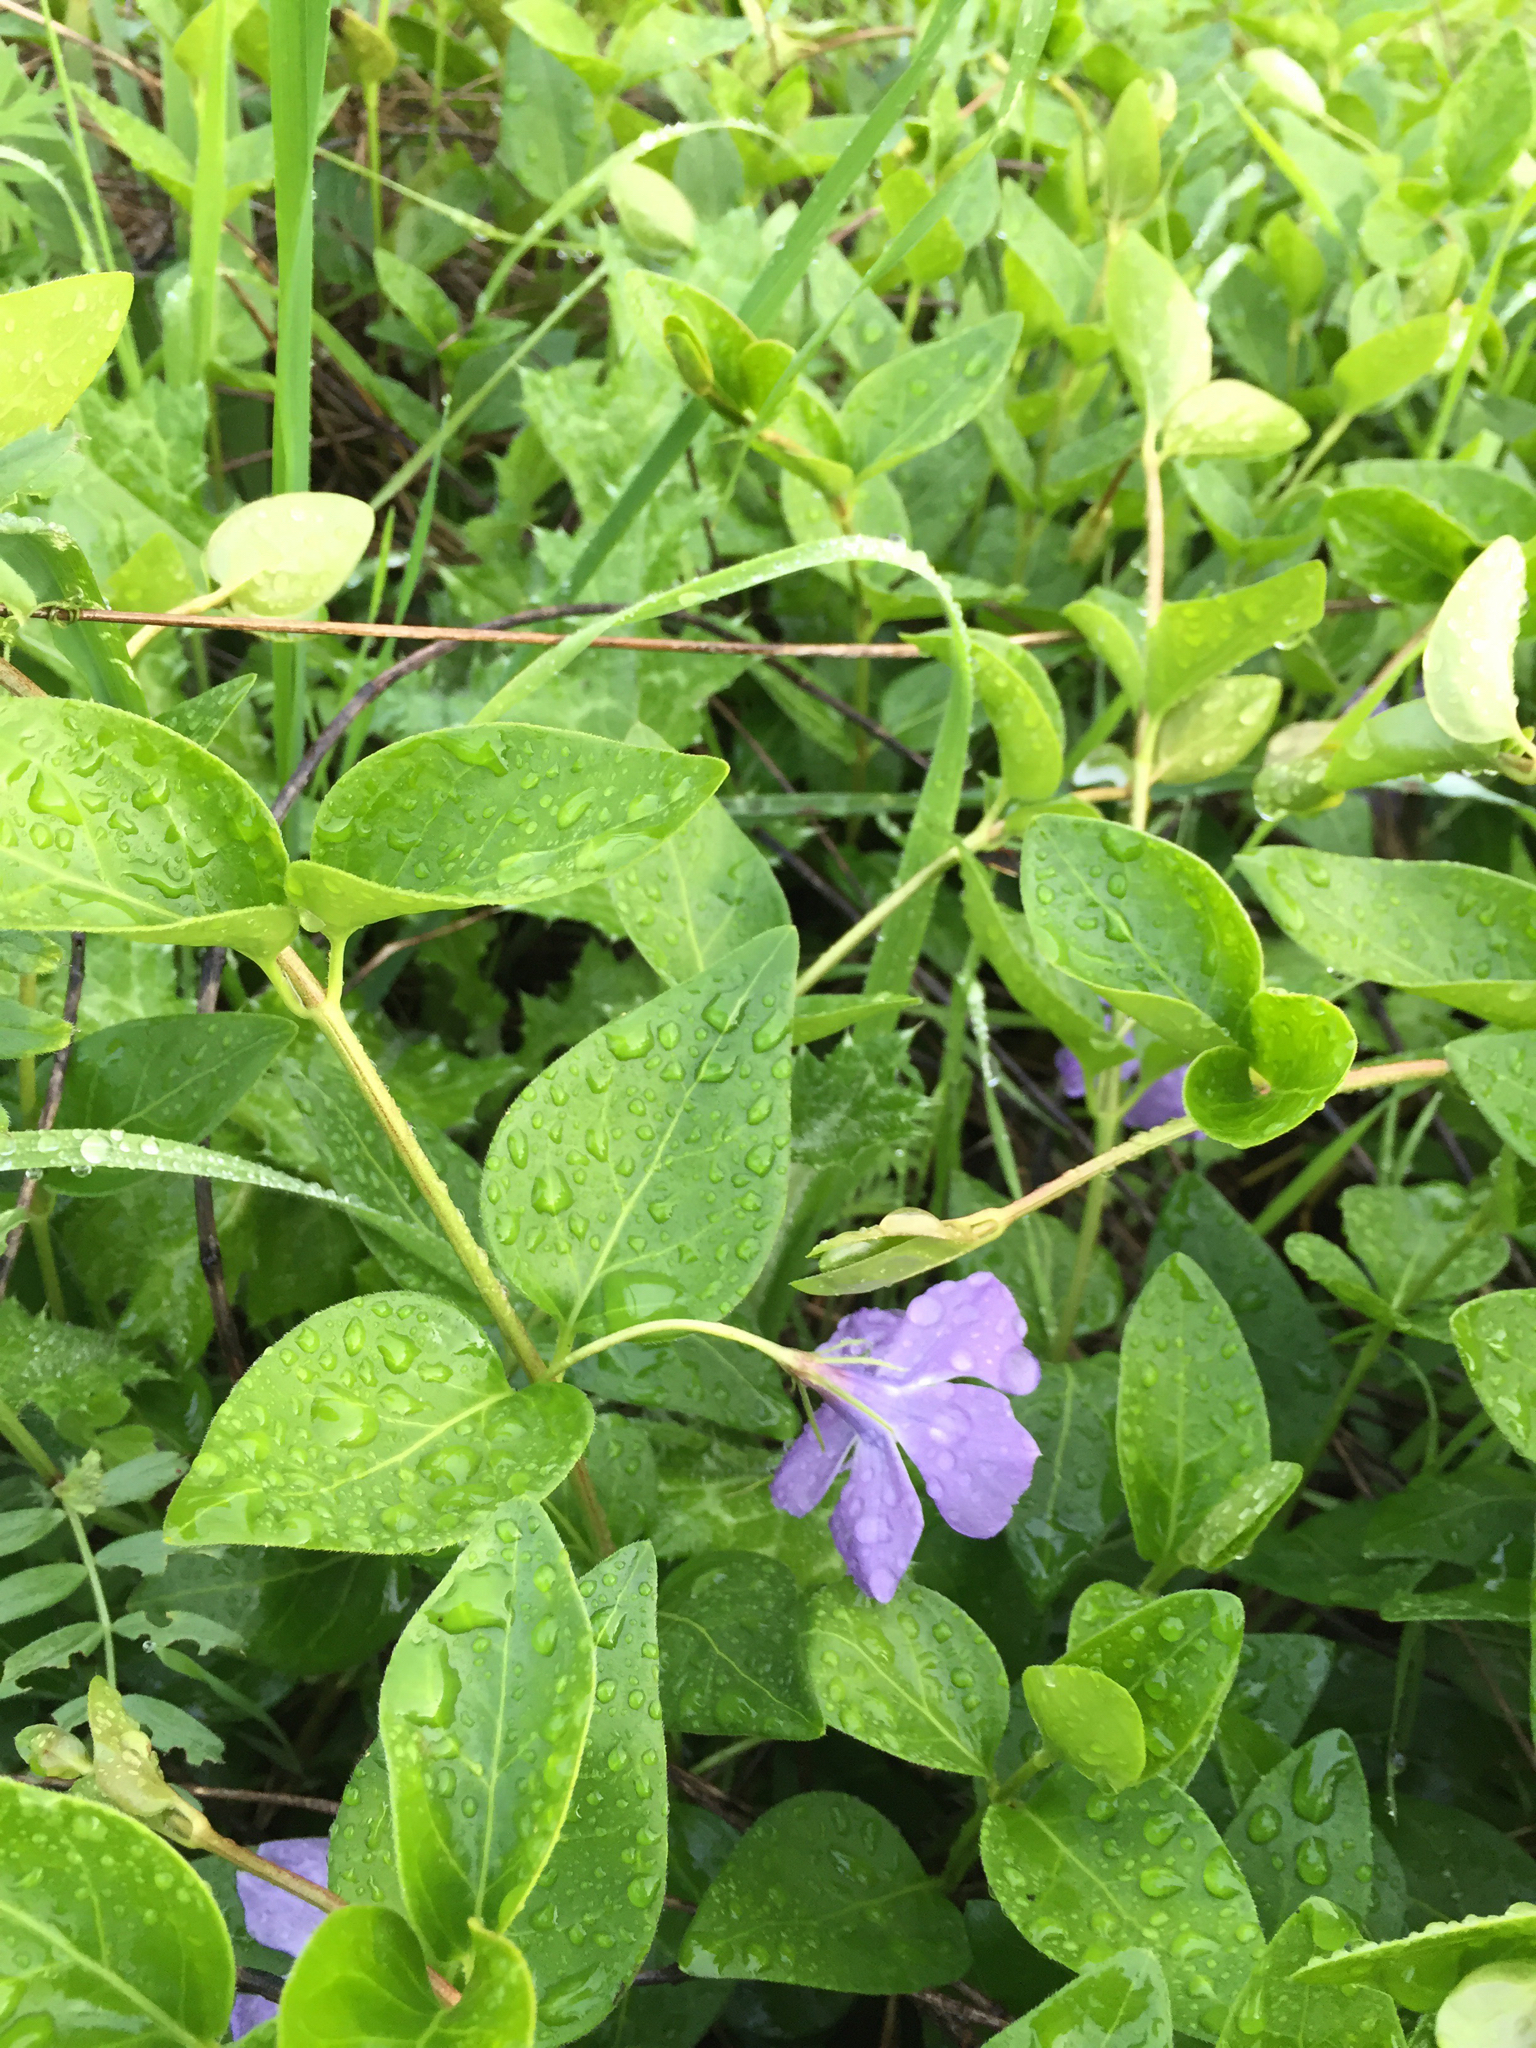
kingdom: Plantae
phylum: Tracheophyta
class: Magnoliopsida
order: Gentianales
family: Apocynaceae
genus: Vinca
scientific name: Vinca major
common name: Greater periwinkle
